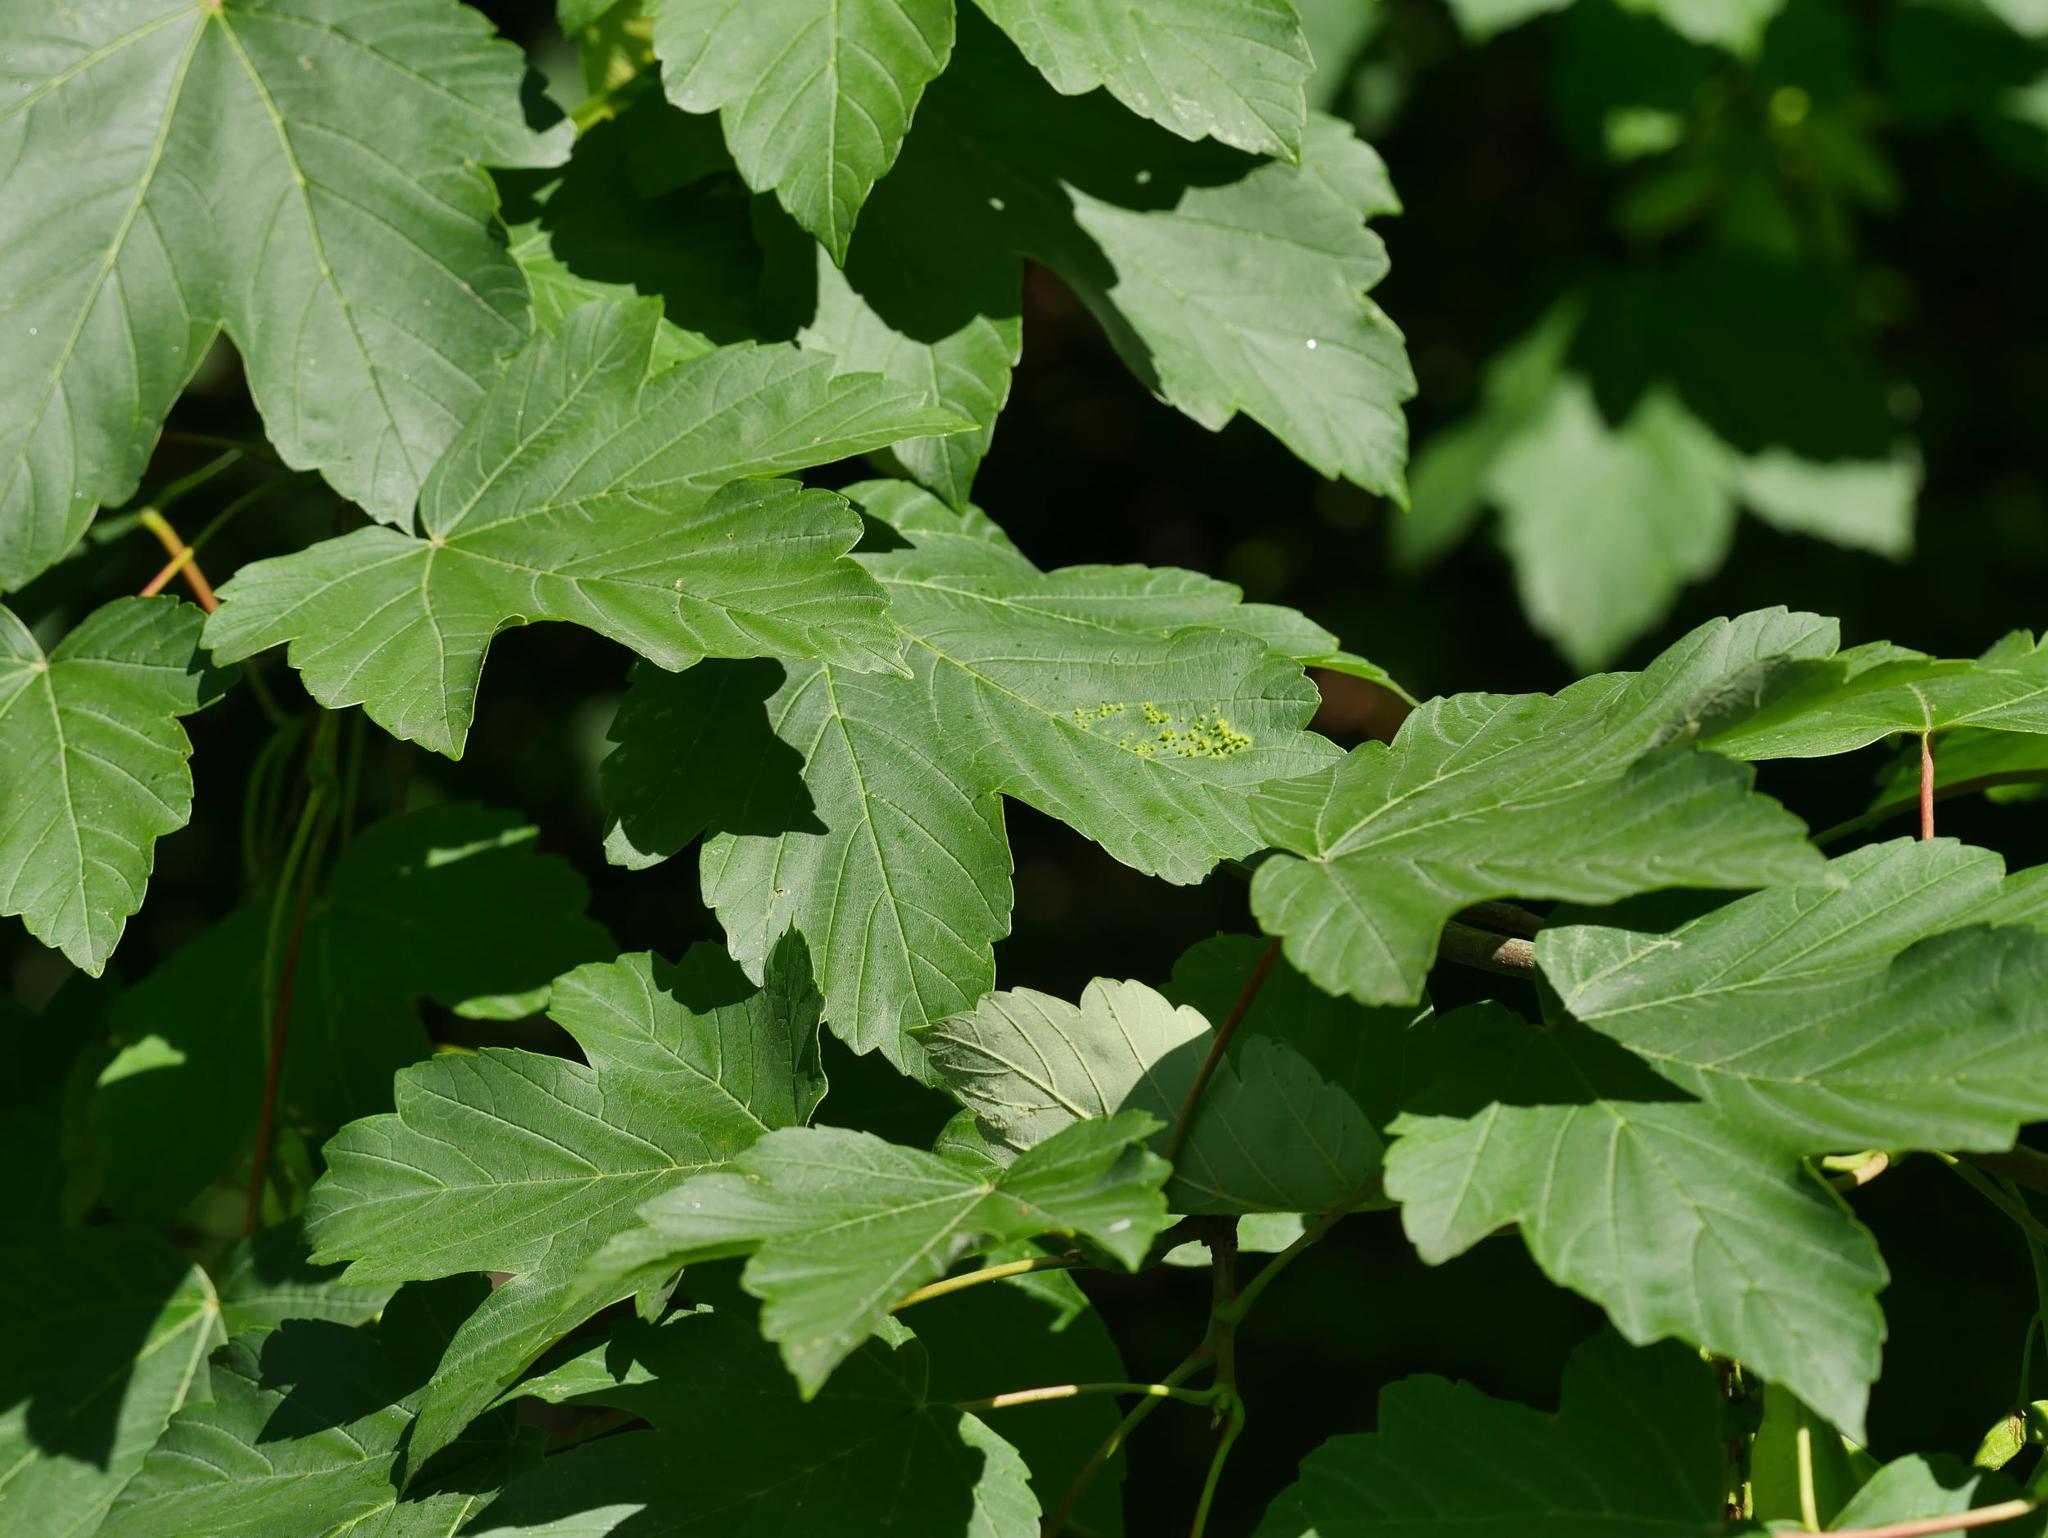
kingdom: Plantae
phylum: Tracheophyta
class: Magnoliopsida
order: Sapindales
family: Sapindaceae
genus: Acer
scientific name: Acer pseudoplatanus
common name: Sycamore
